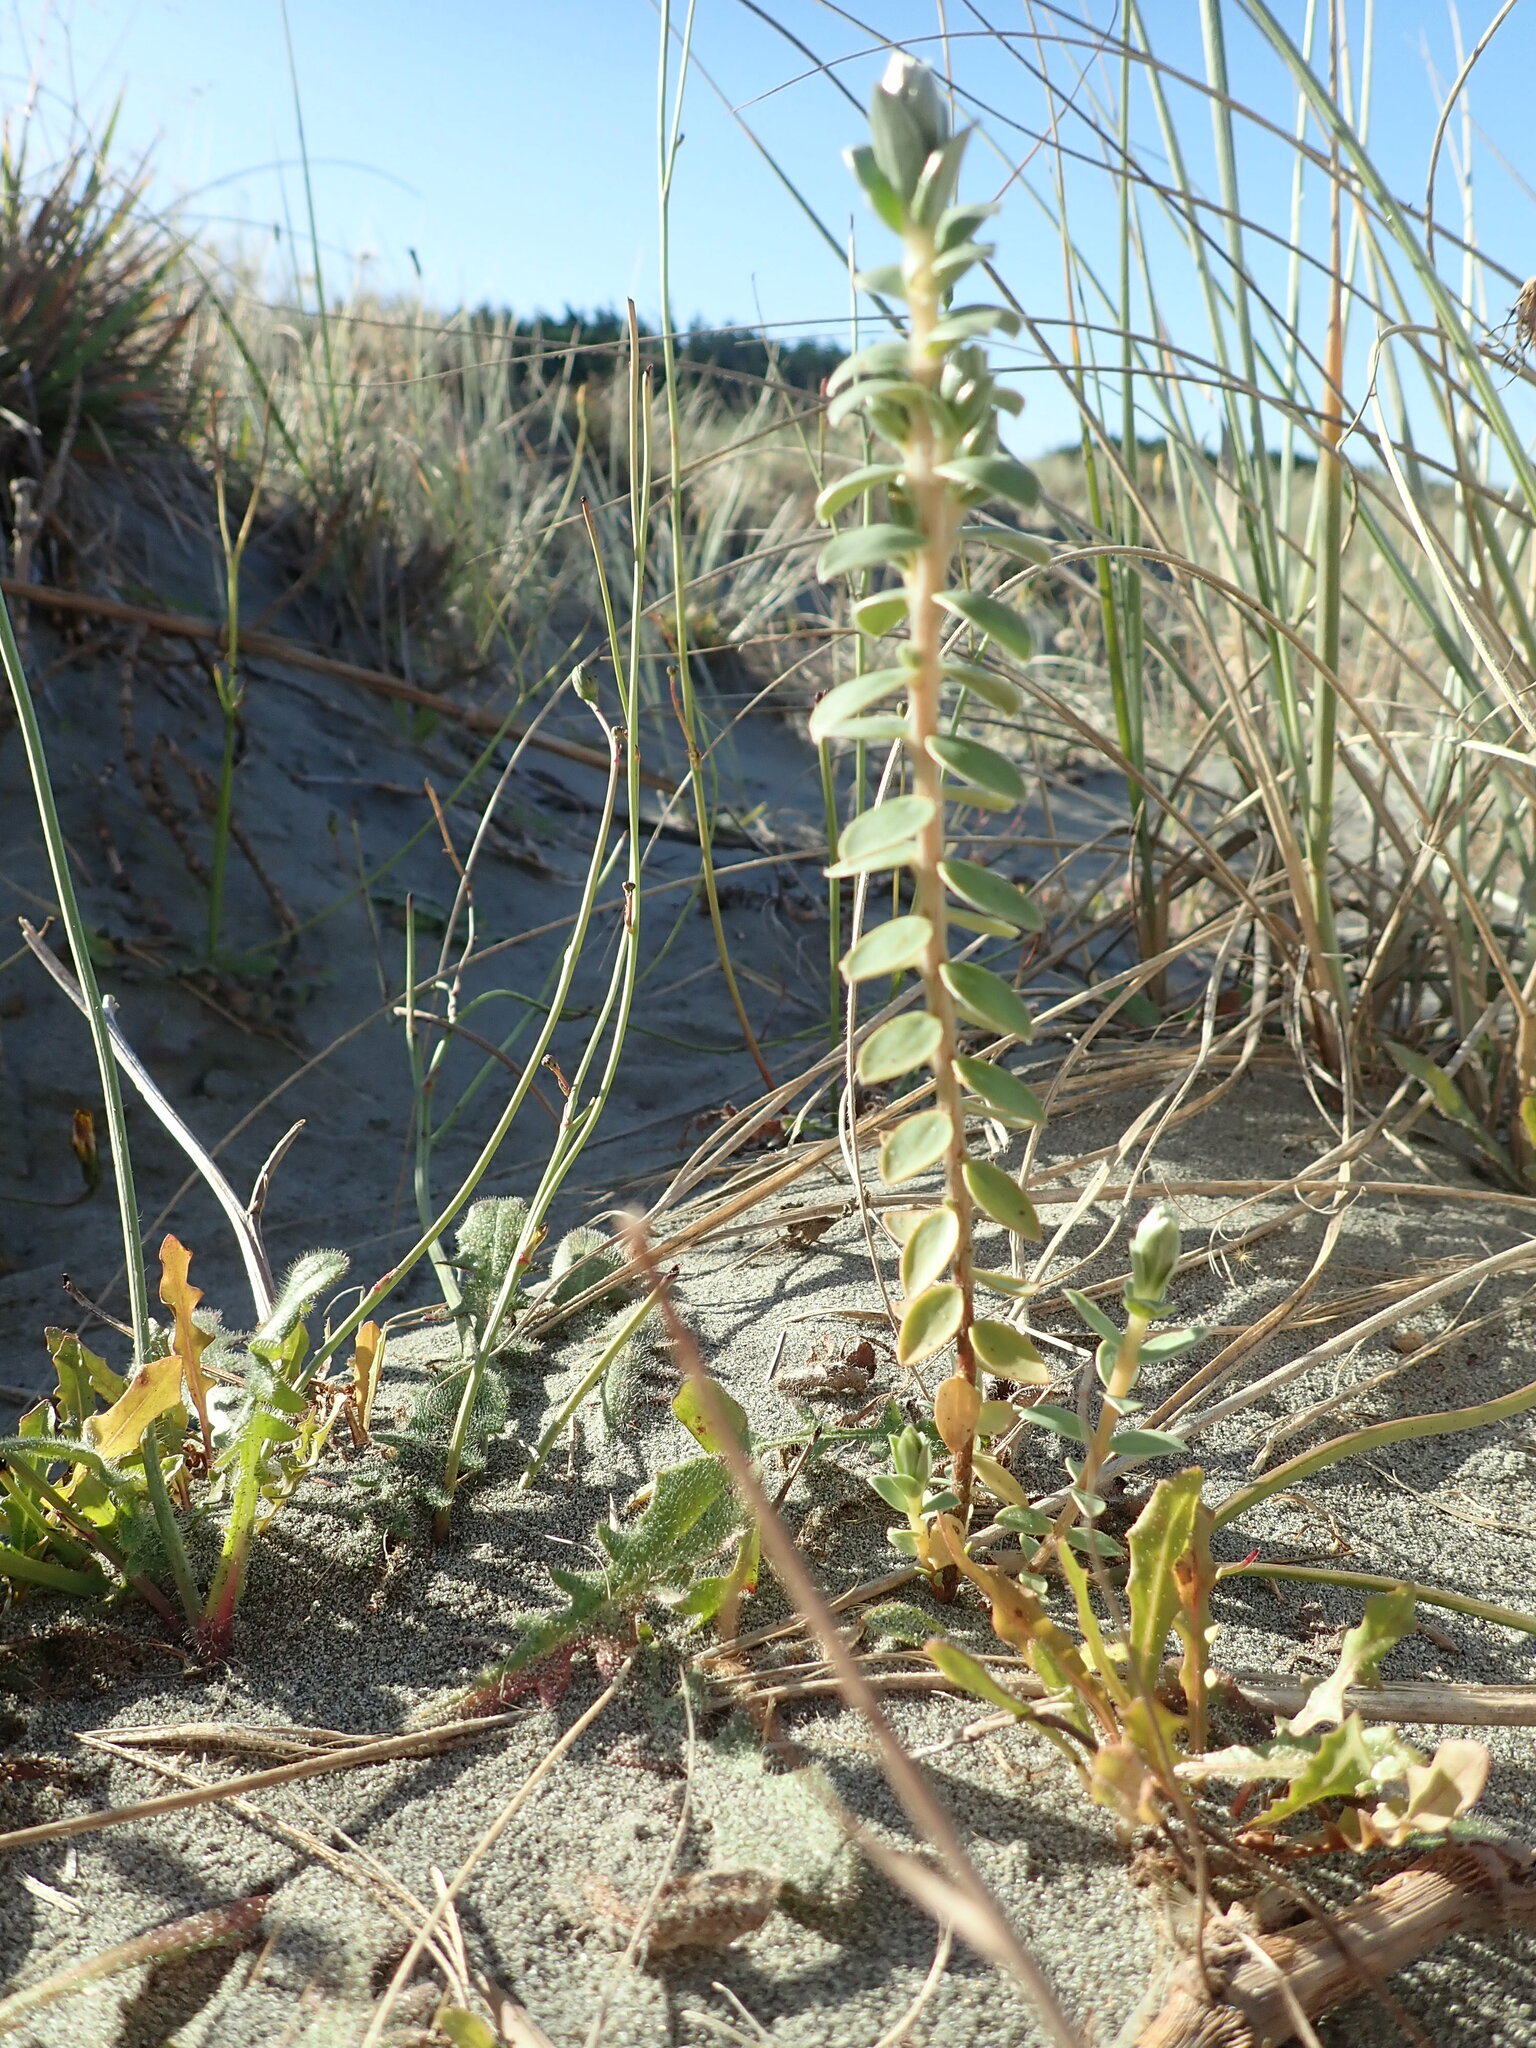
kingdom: Plantae
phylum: Tracheophyta
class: Magnoliopsida
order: Malvales
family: Thymelaeaceae
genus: Pimelea
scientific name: Pimelea villosa
